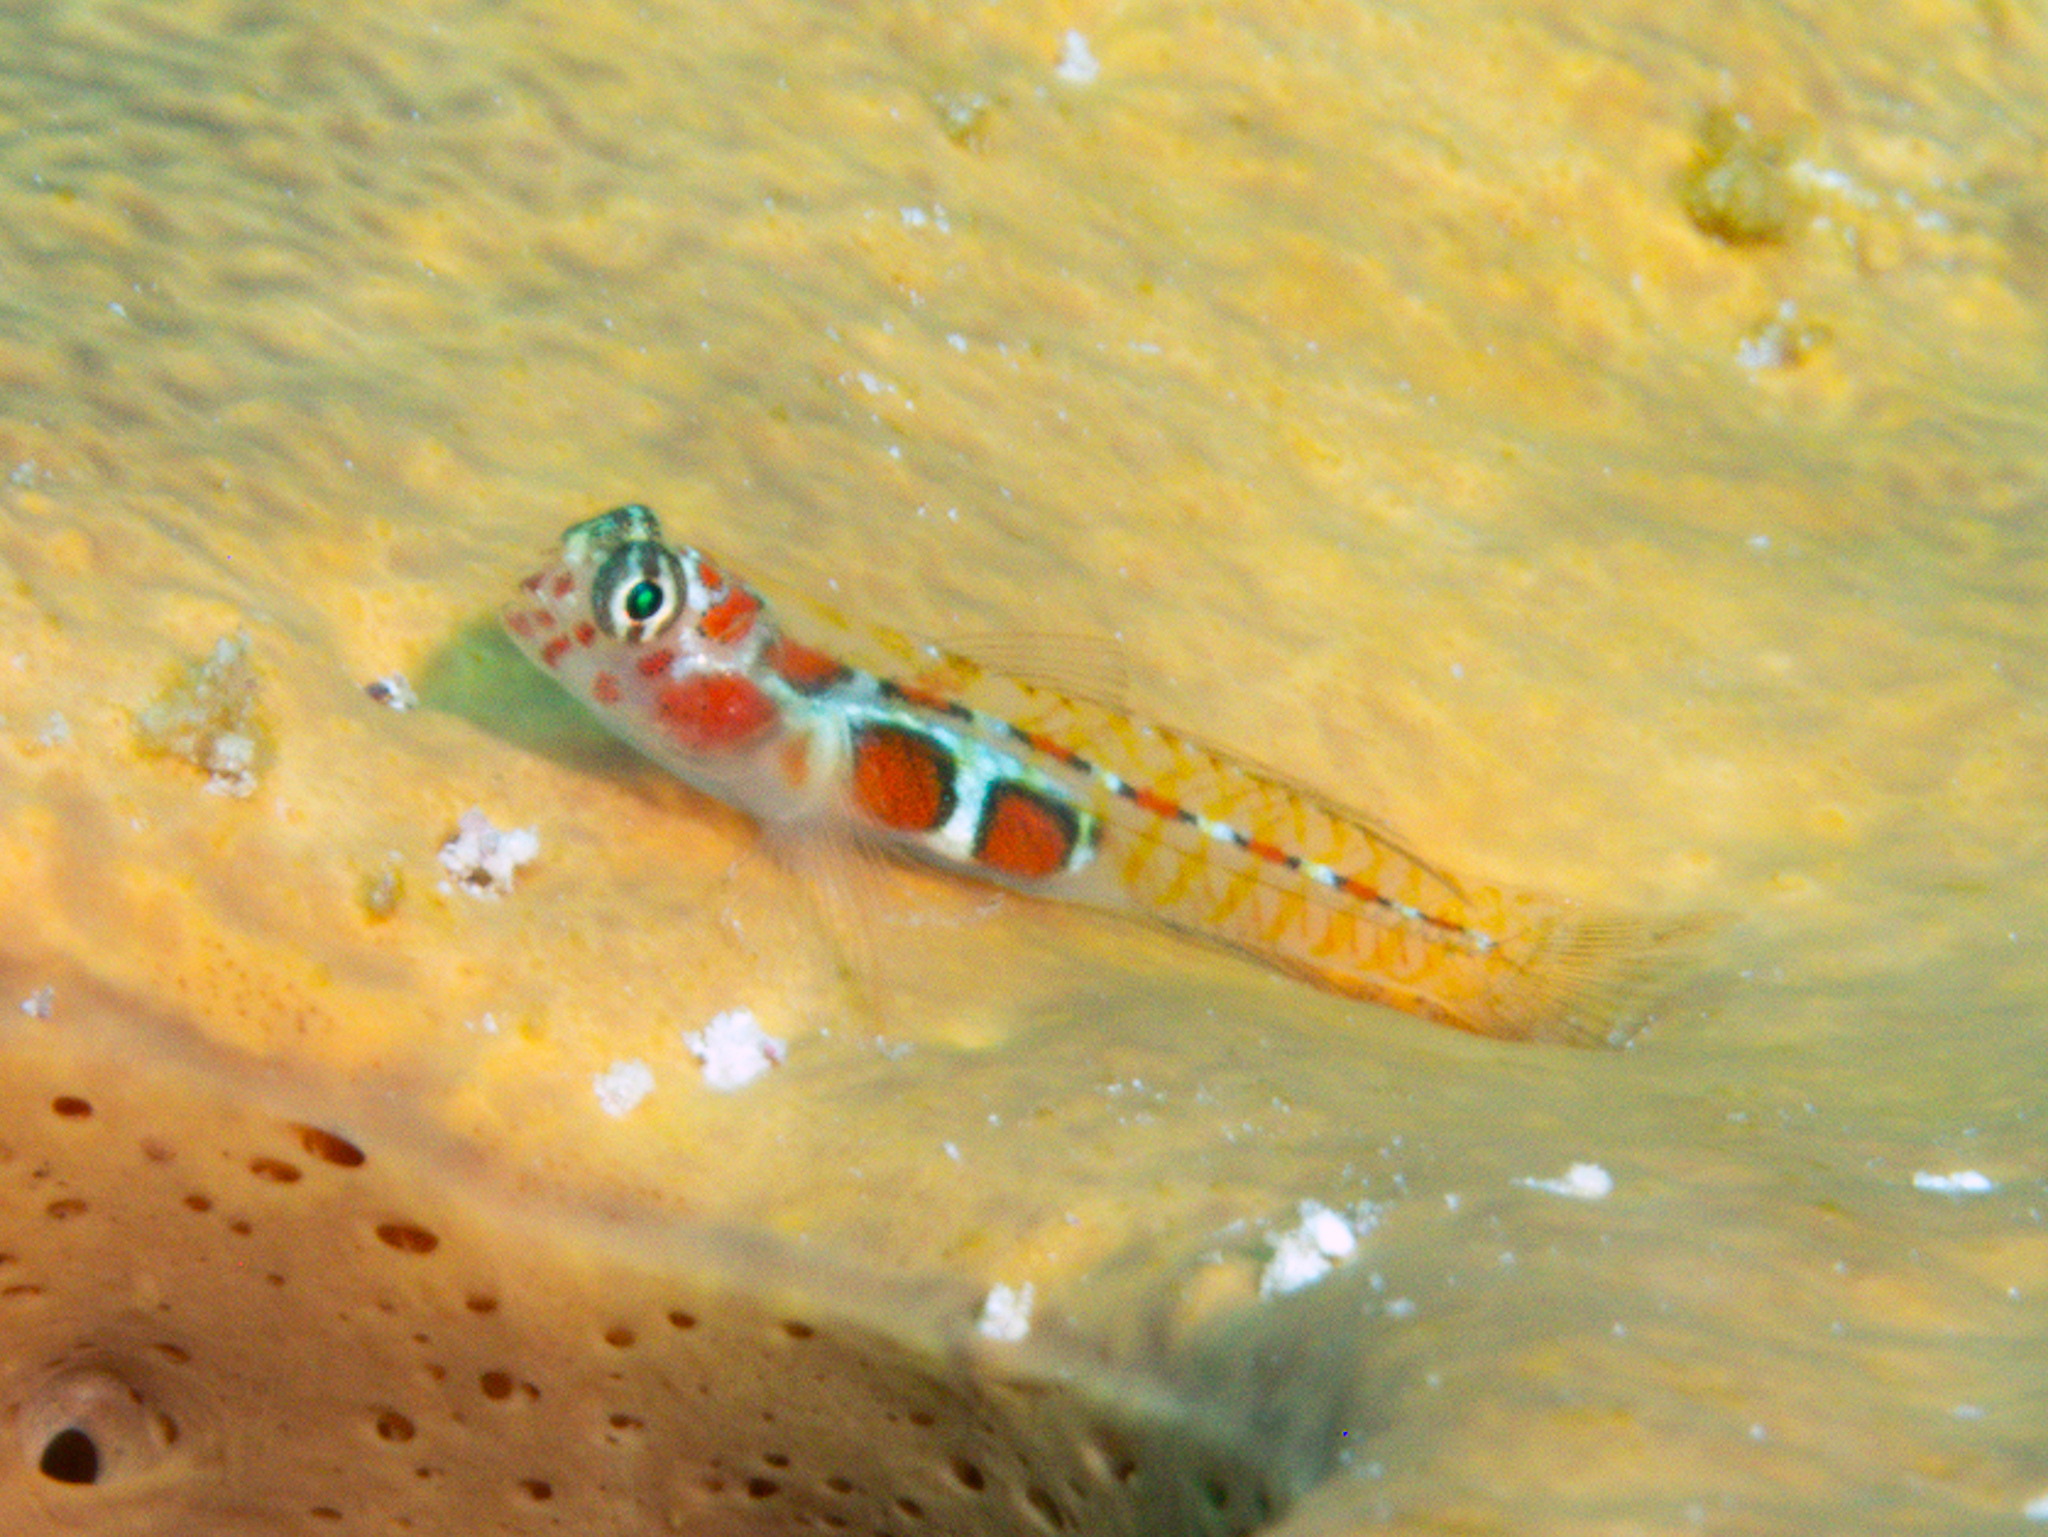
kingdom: Animalia
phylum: Chordata
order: Perciformes
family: Gobiidae
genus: Tigrigobius
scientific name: Tigrigobius dilepis
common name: Orangeside goby
